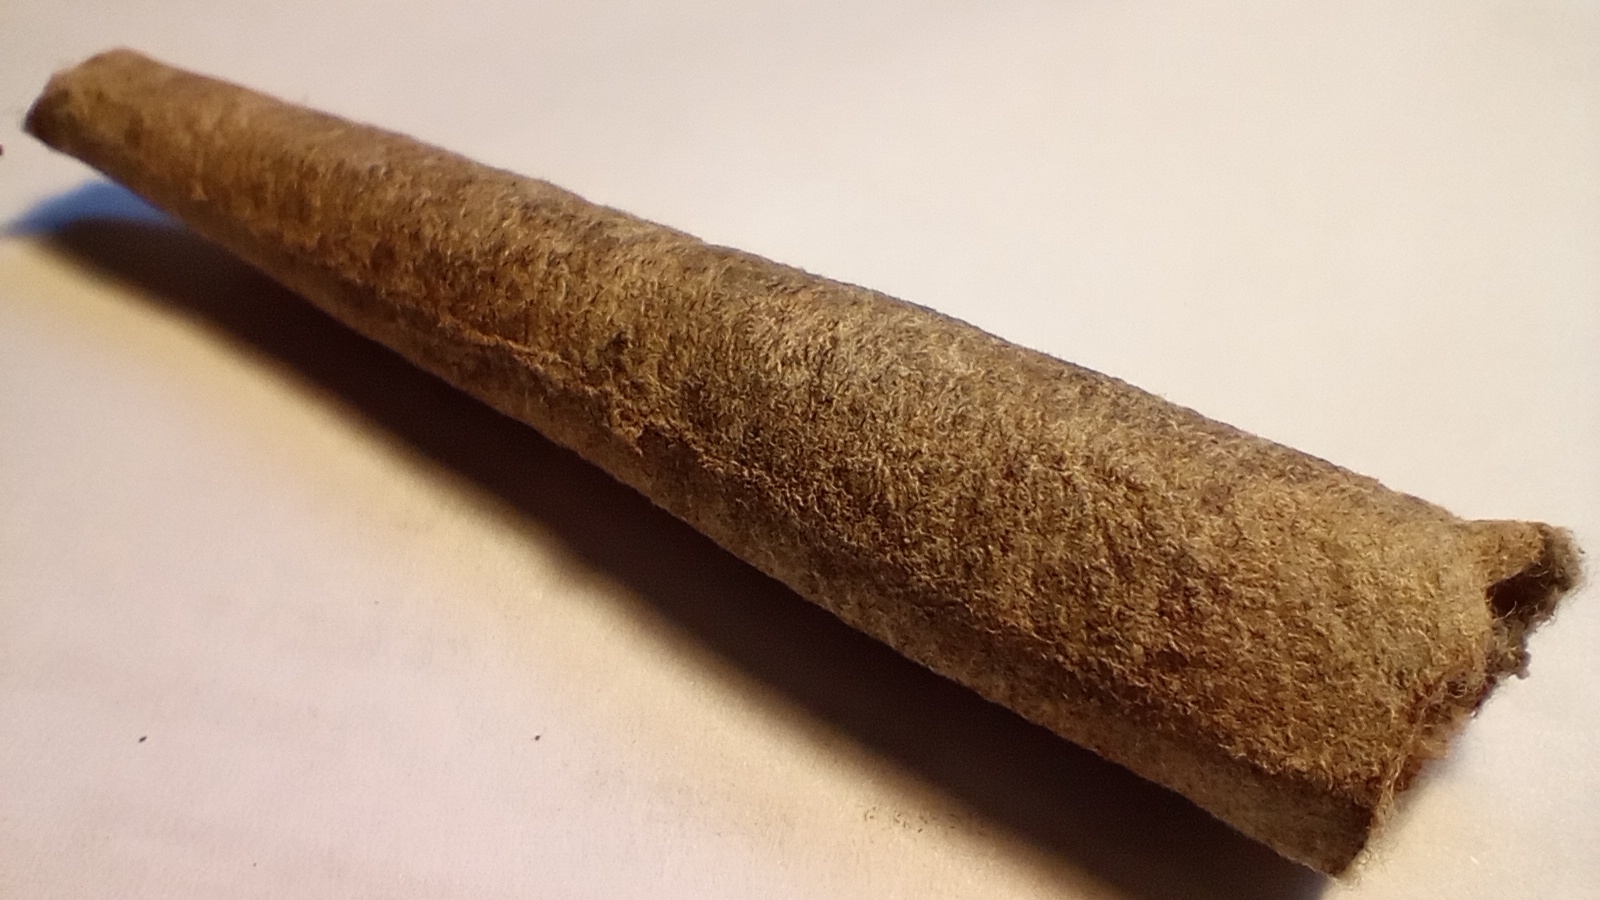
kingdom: Animalia
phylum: Arthropoda
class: Insecta
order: Lepidoptera
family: Psychidae
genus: Oiketicus
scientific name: Oiketicus geyeri
